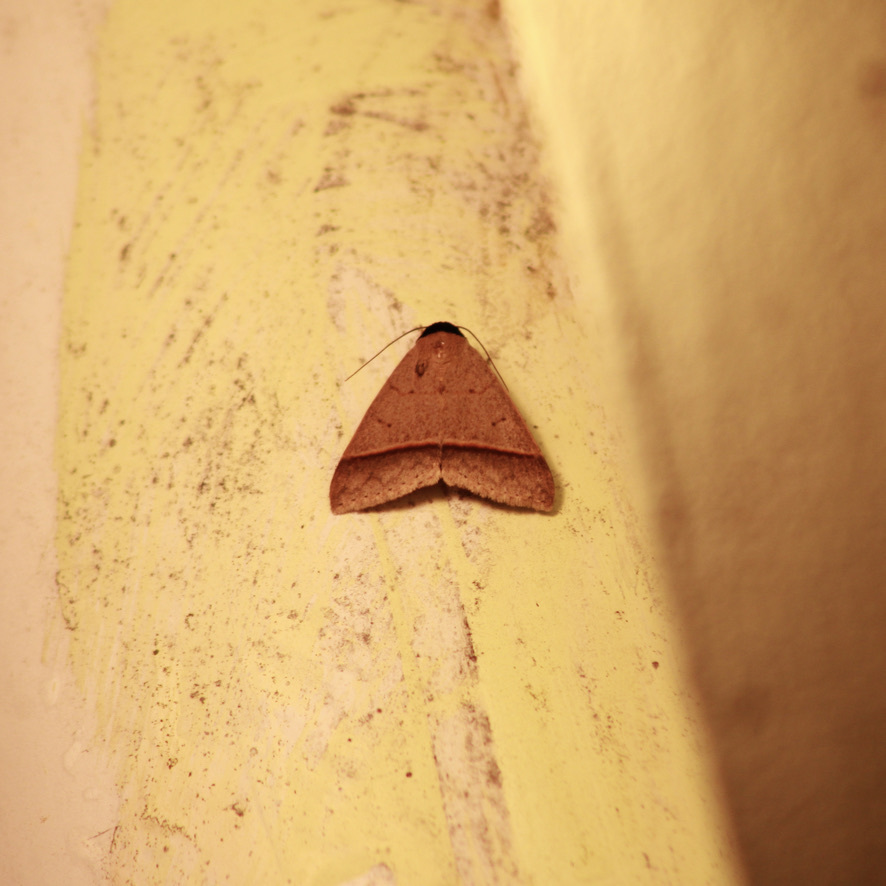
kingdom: Animalia
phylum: Arthropoda
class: Insecta
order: Lepidoptera
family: Erebidae
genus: Deinopa
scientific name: Deinopa percara
